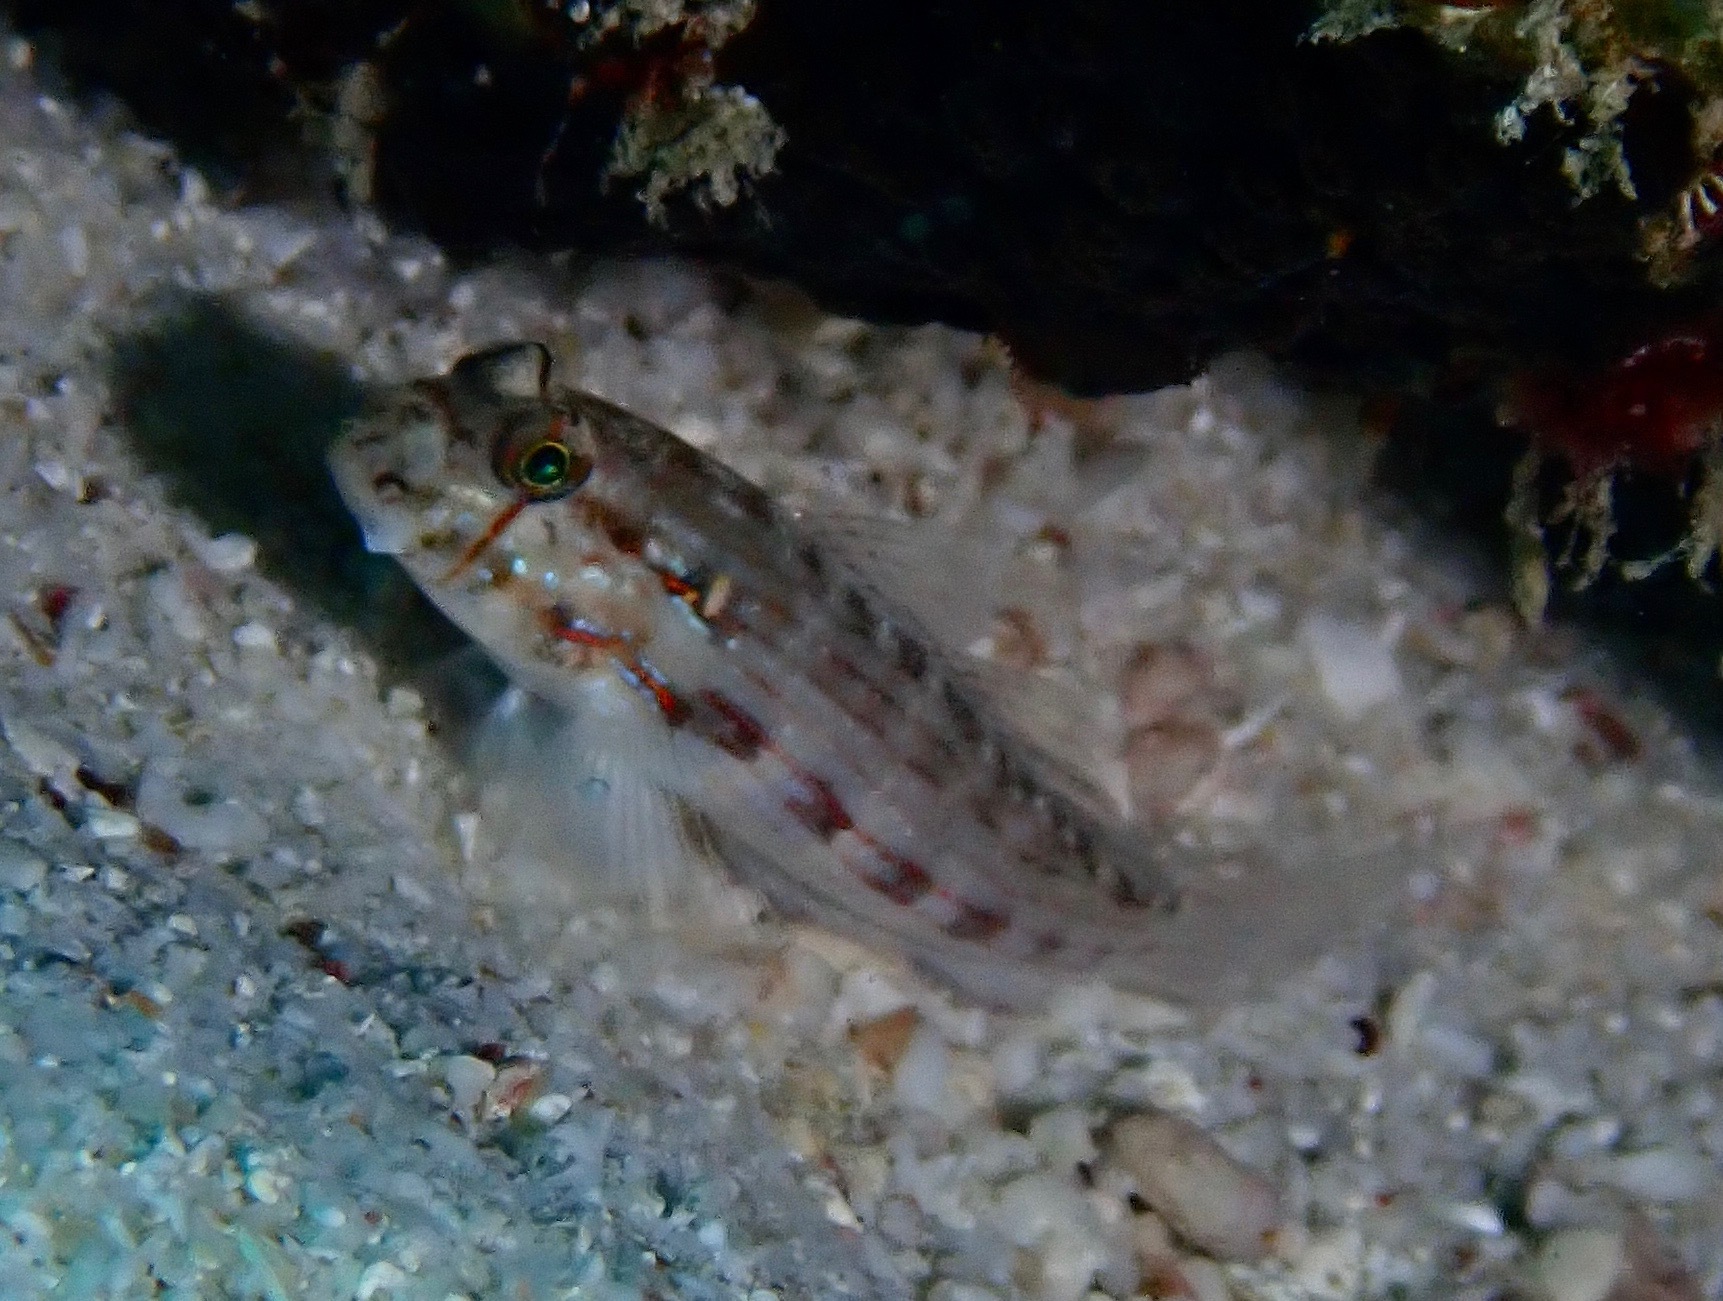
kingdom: Animalia
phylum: Chordata
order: Perciformes
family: Gobiidae
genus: Gnatholepis
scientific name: Gnatholepis cauerensis
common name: Bridled goby
